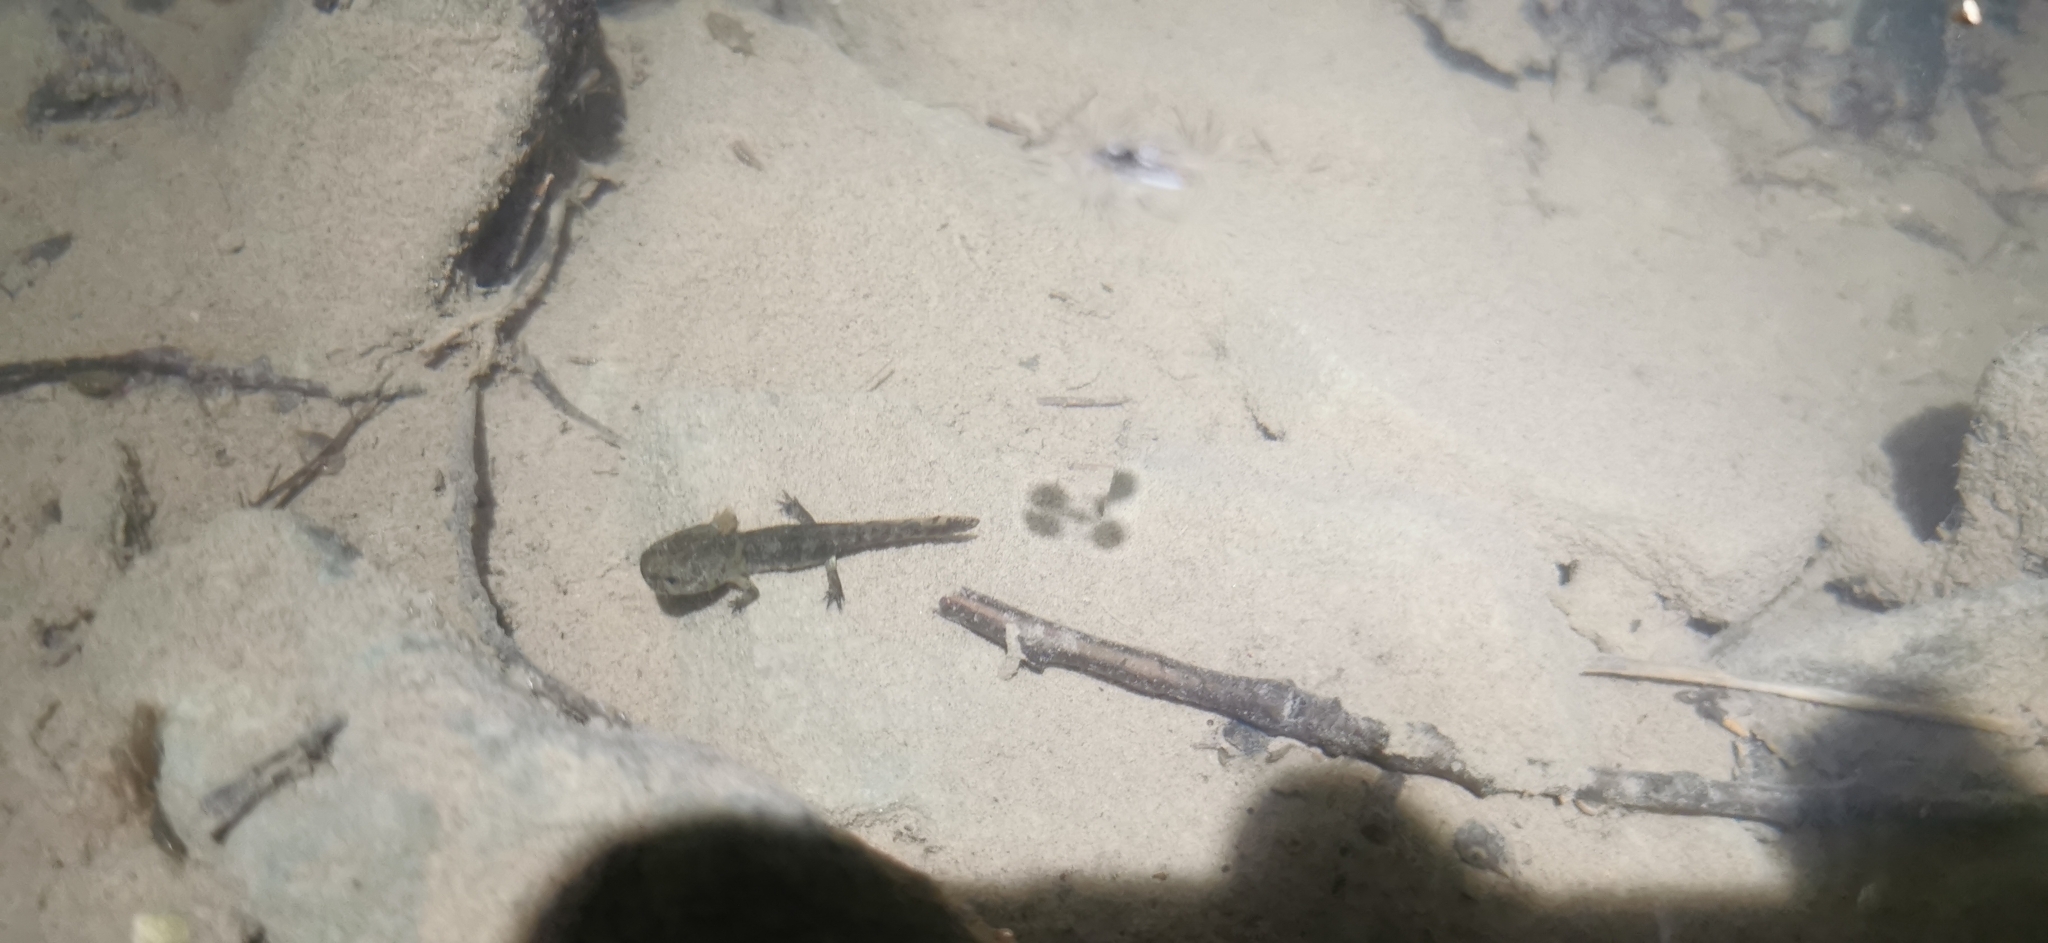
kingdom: Animalia
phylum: Chordata
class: Amphibia
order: Caudata
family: Salamandridae
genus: Salamandra
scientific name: Salamandra salamandra
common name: Fire salamander
